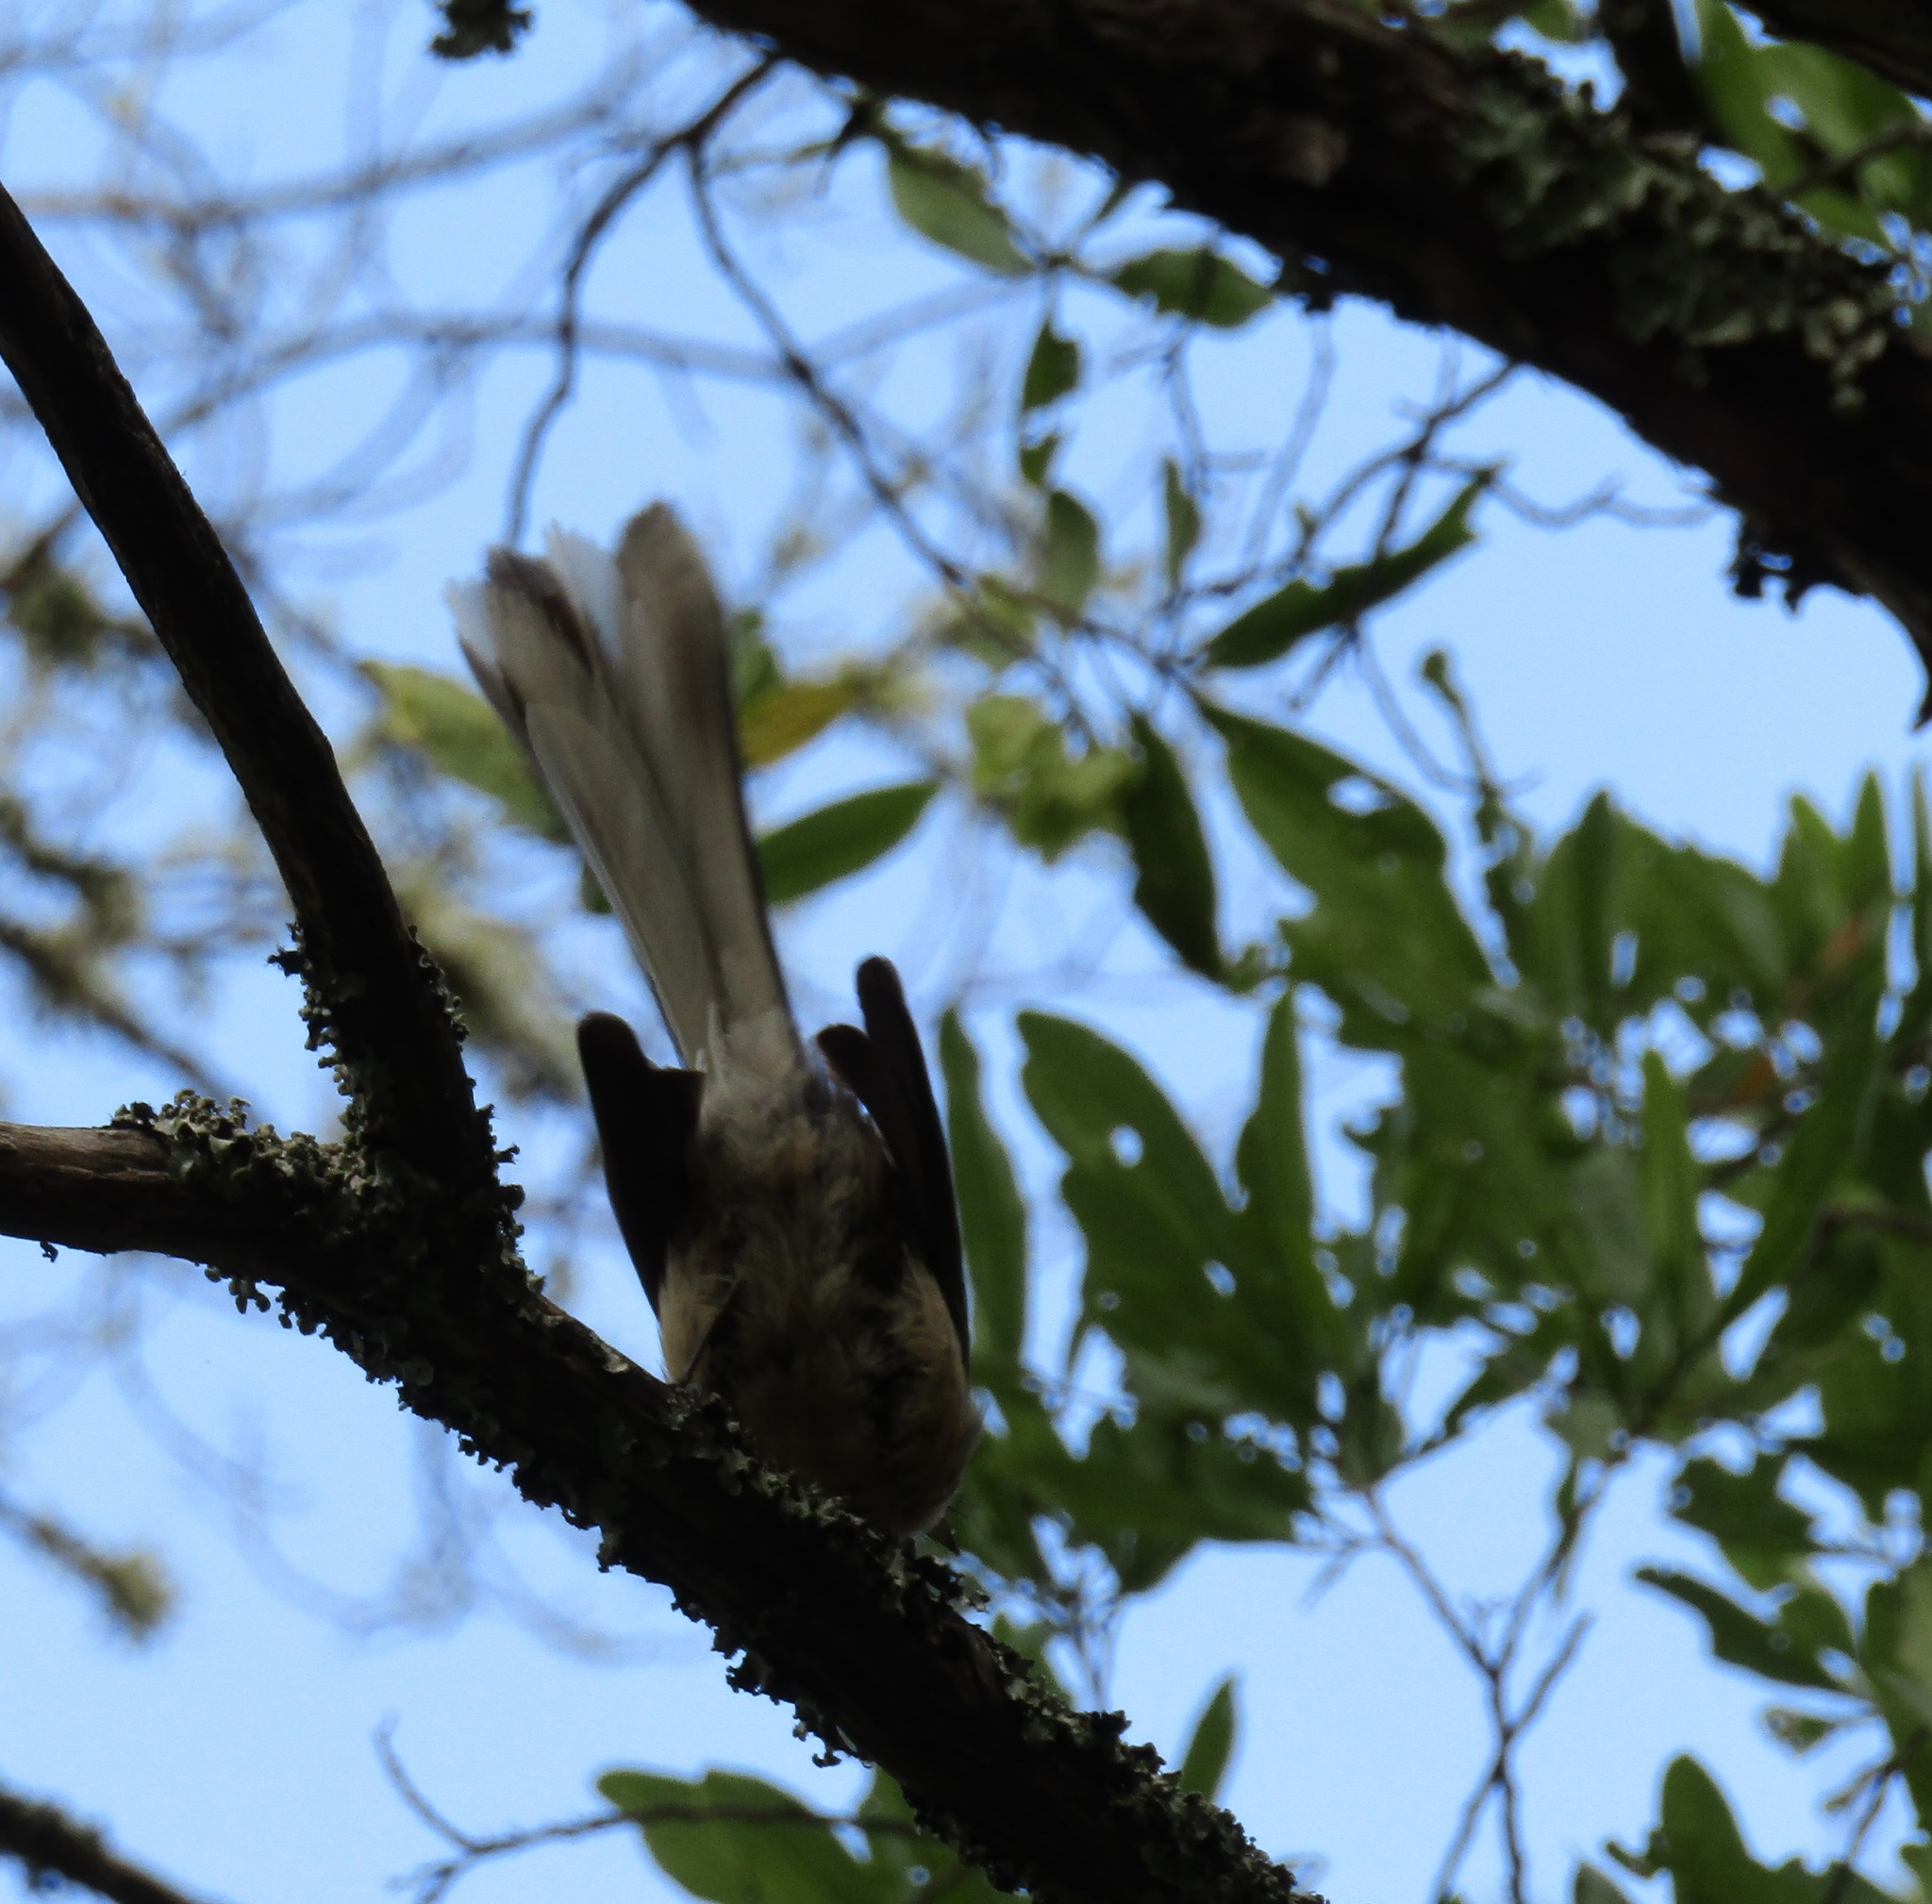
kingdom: Animalia
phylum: Chordata
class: Aves
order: Passeriformes
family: Rhipiduridae
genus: Rhipidura
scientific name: Rhipidura fuliginosa
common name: New zealand fantail
